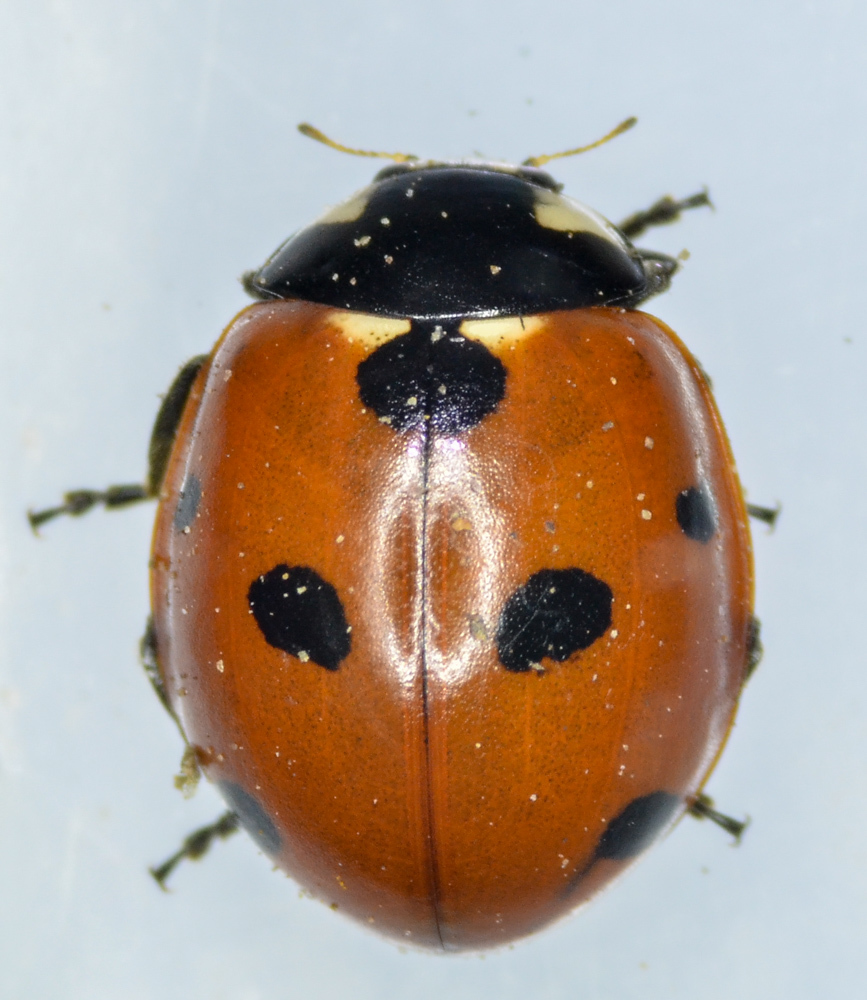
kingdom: Animalia
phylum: Arthropoda
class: Insecta
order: Coleoptera
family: Coccinellidae
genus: Coccinella
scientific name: Coccinella septempunctata
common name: Sevenspotted lady beetle
